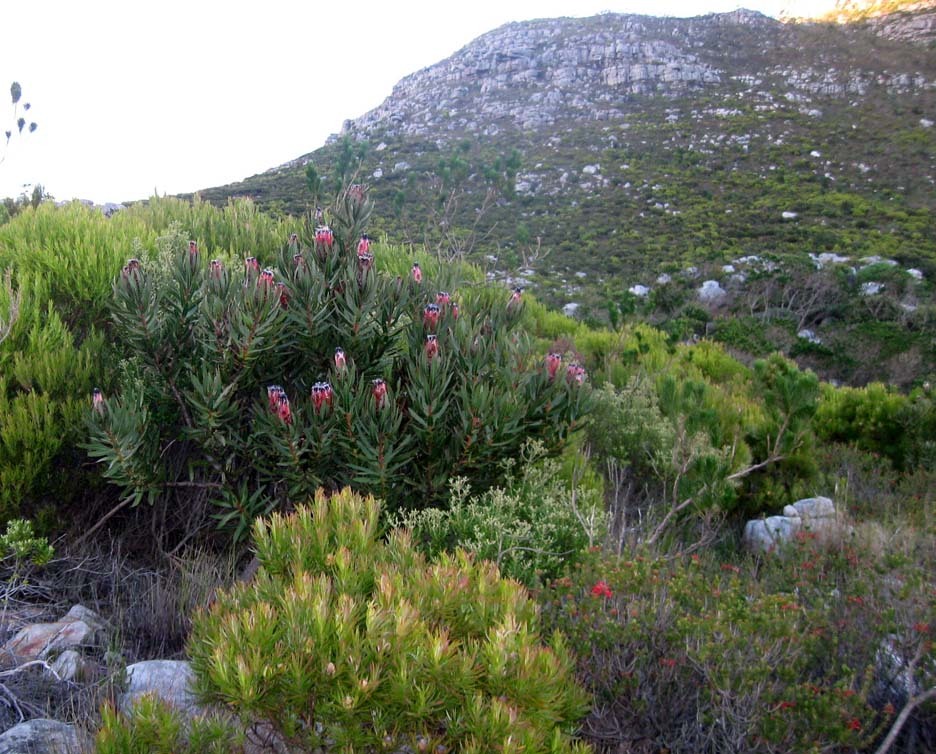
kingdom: Plantae
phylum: Tracheophyta
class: Magnoliopsida
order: Proteales
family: Proteaceae
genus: Protea
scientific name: Protea neriifolia
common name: Blue sugarbush
